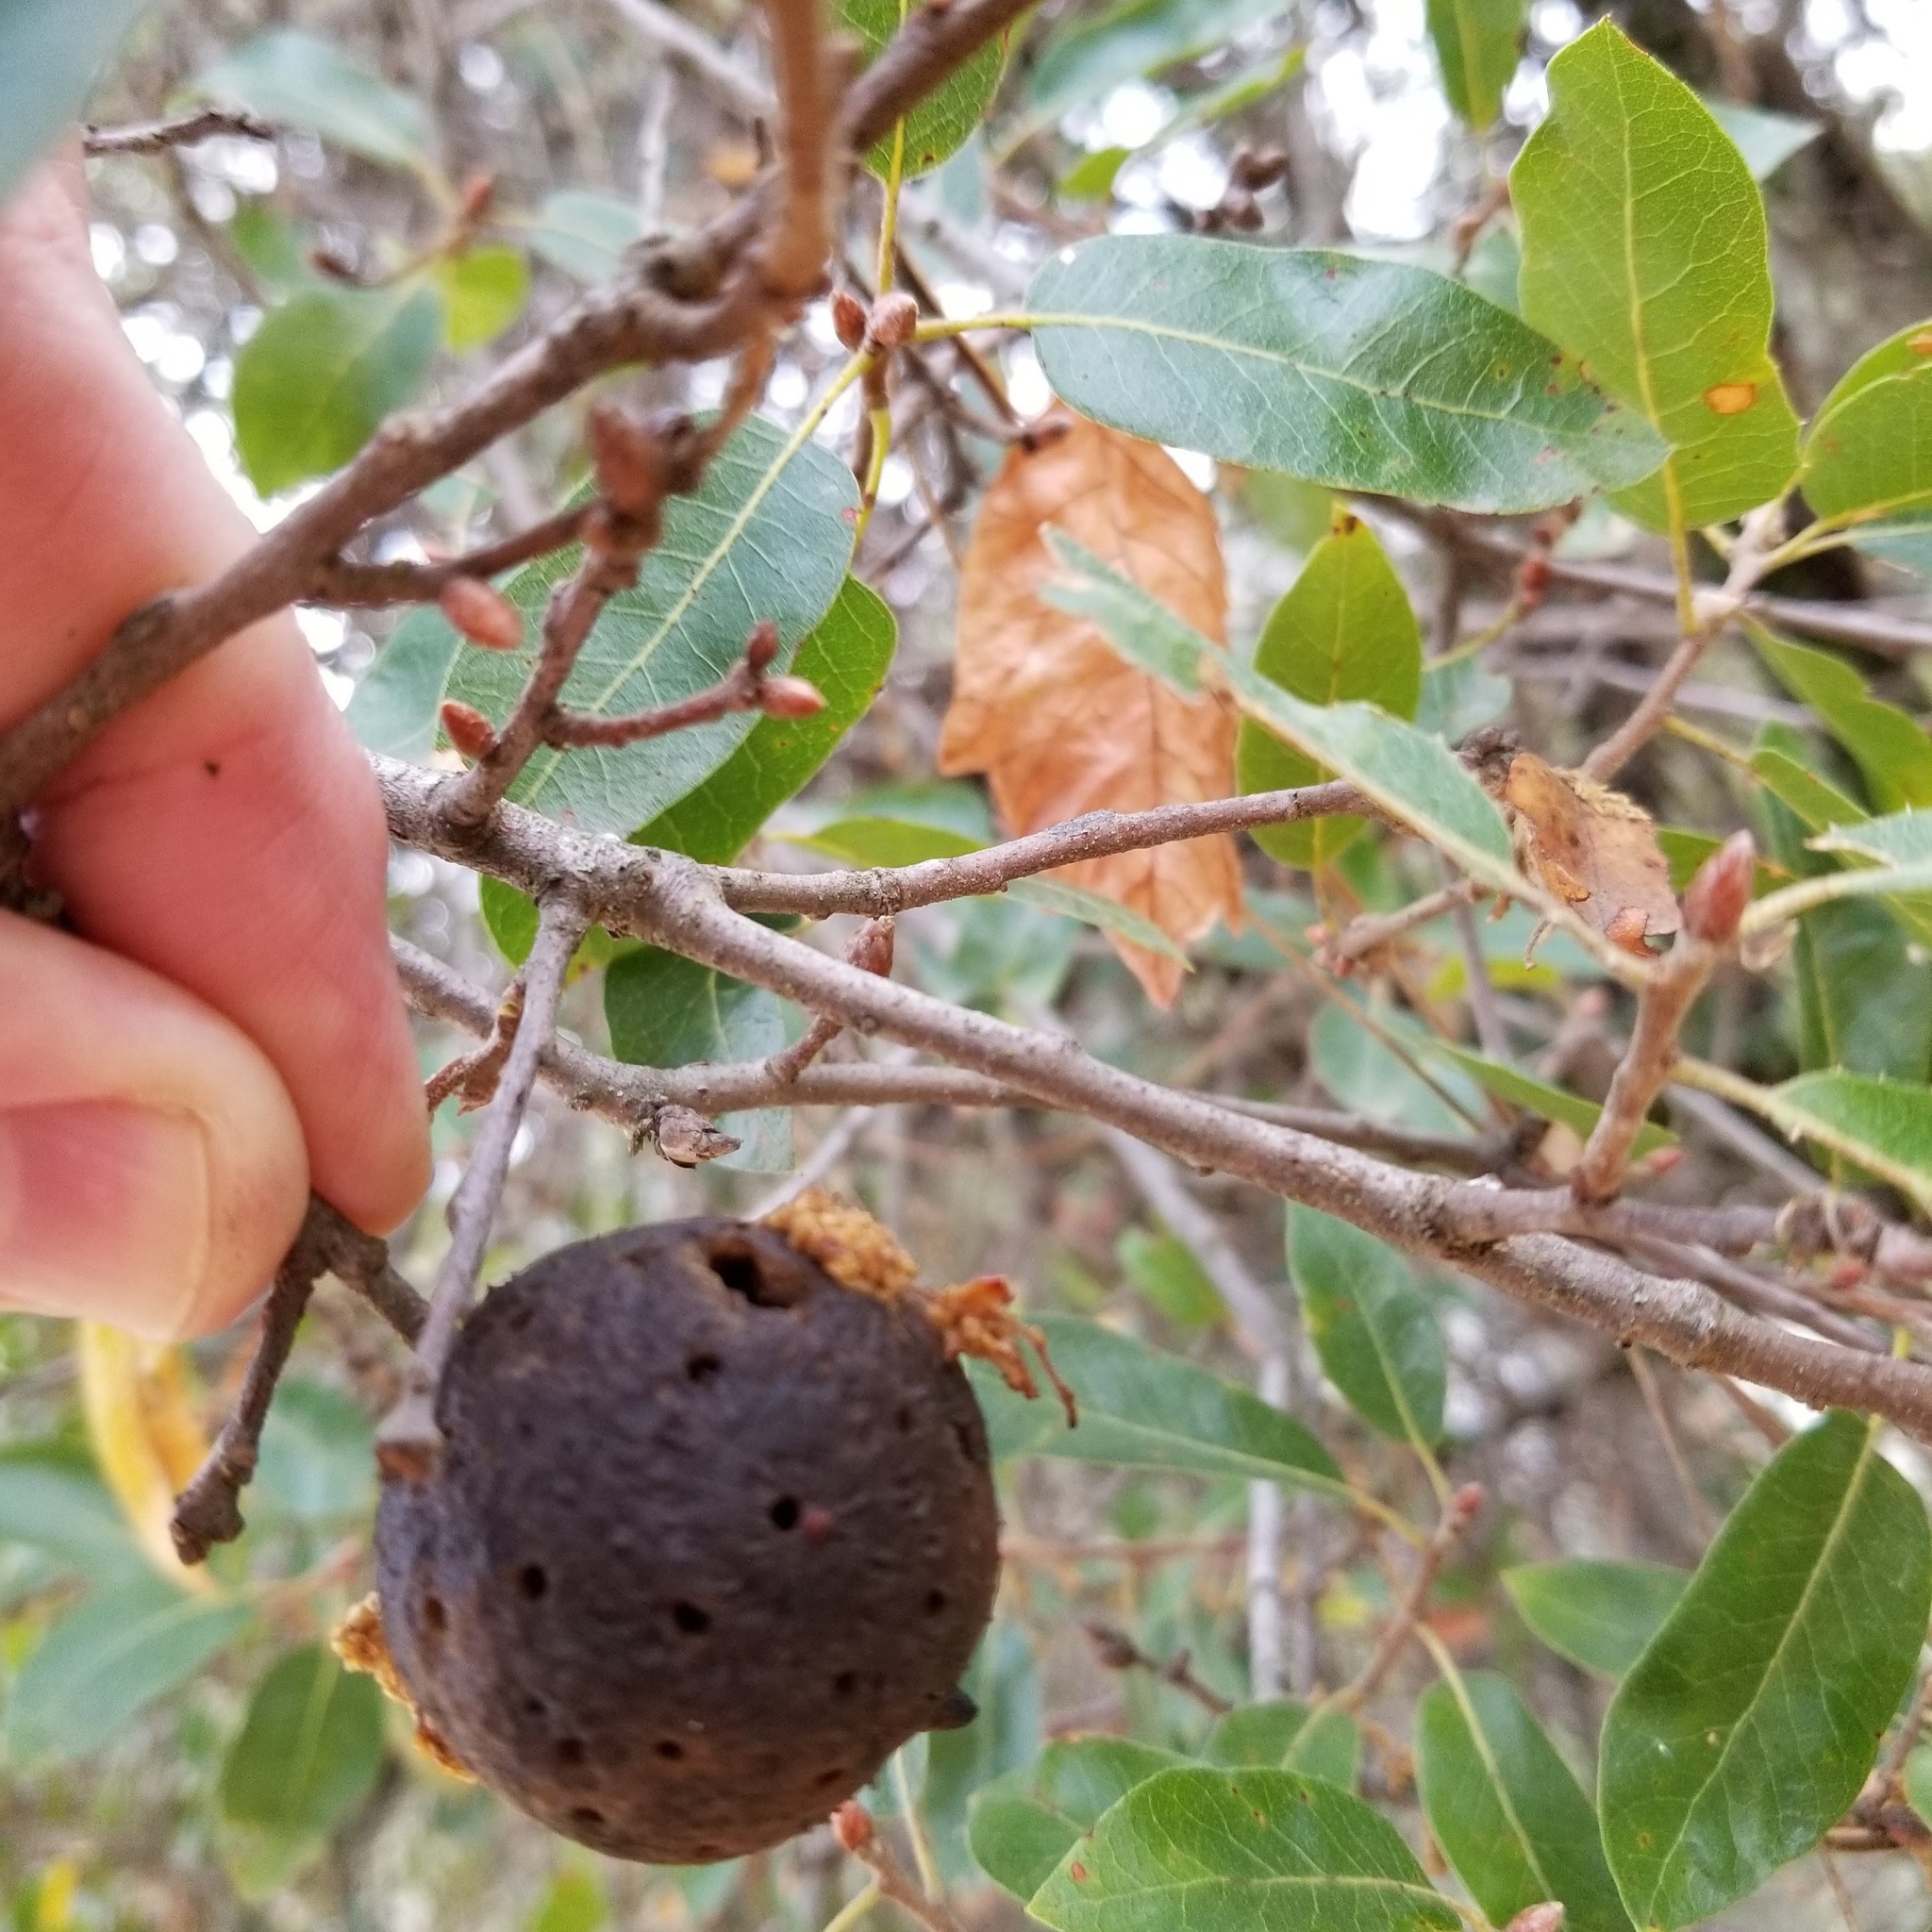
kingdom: Animalia
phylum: Arthropoda
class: Insecta
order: Hymenoptera
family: Cynipidae
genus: Amphibolips
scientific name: Amphibolips quercuspomiformis
